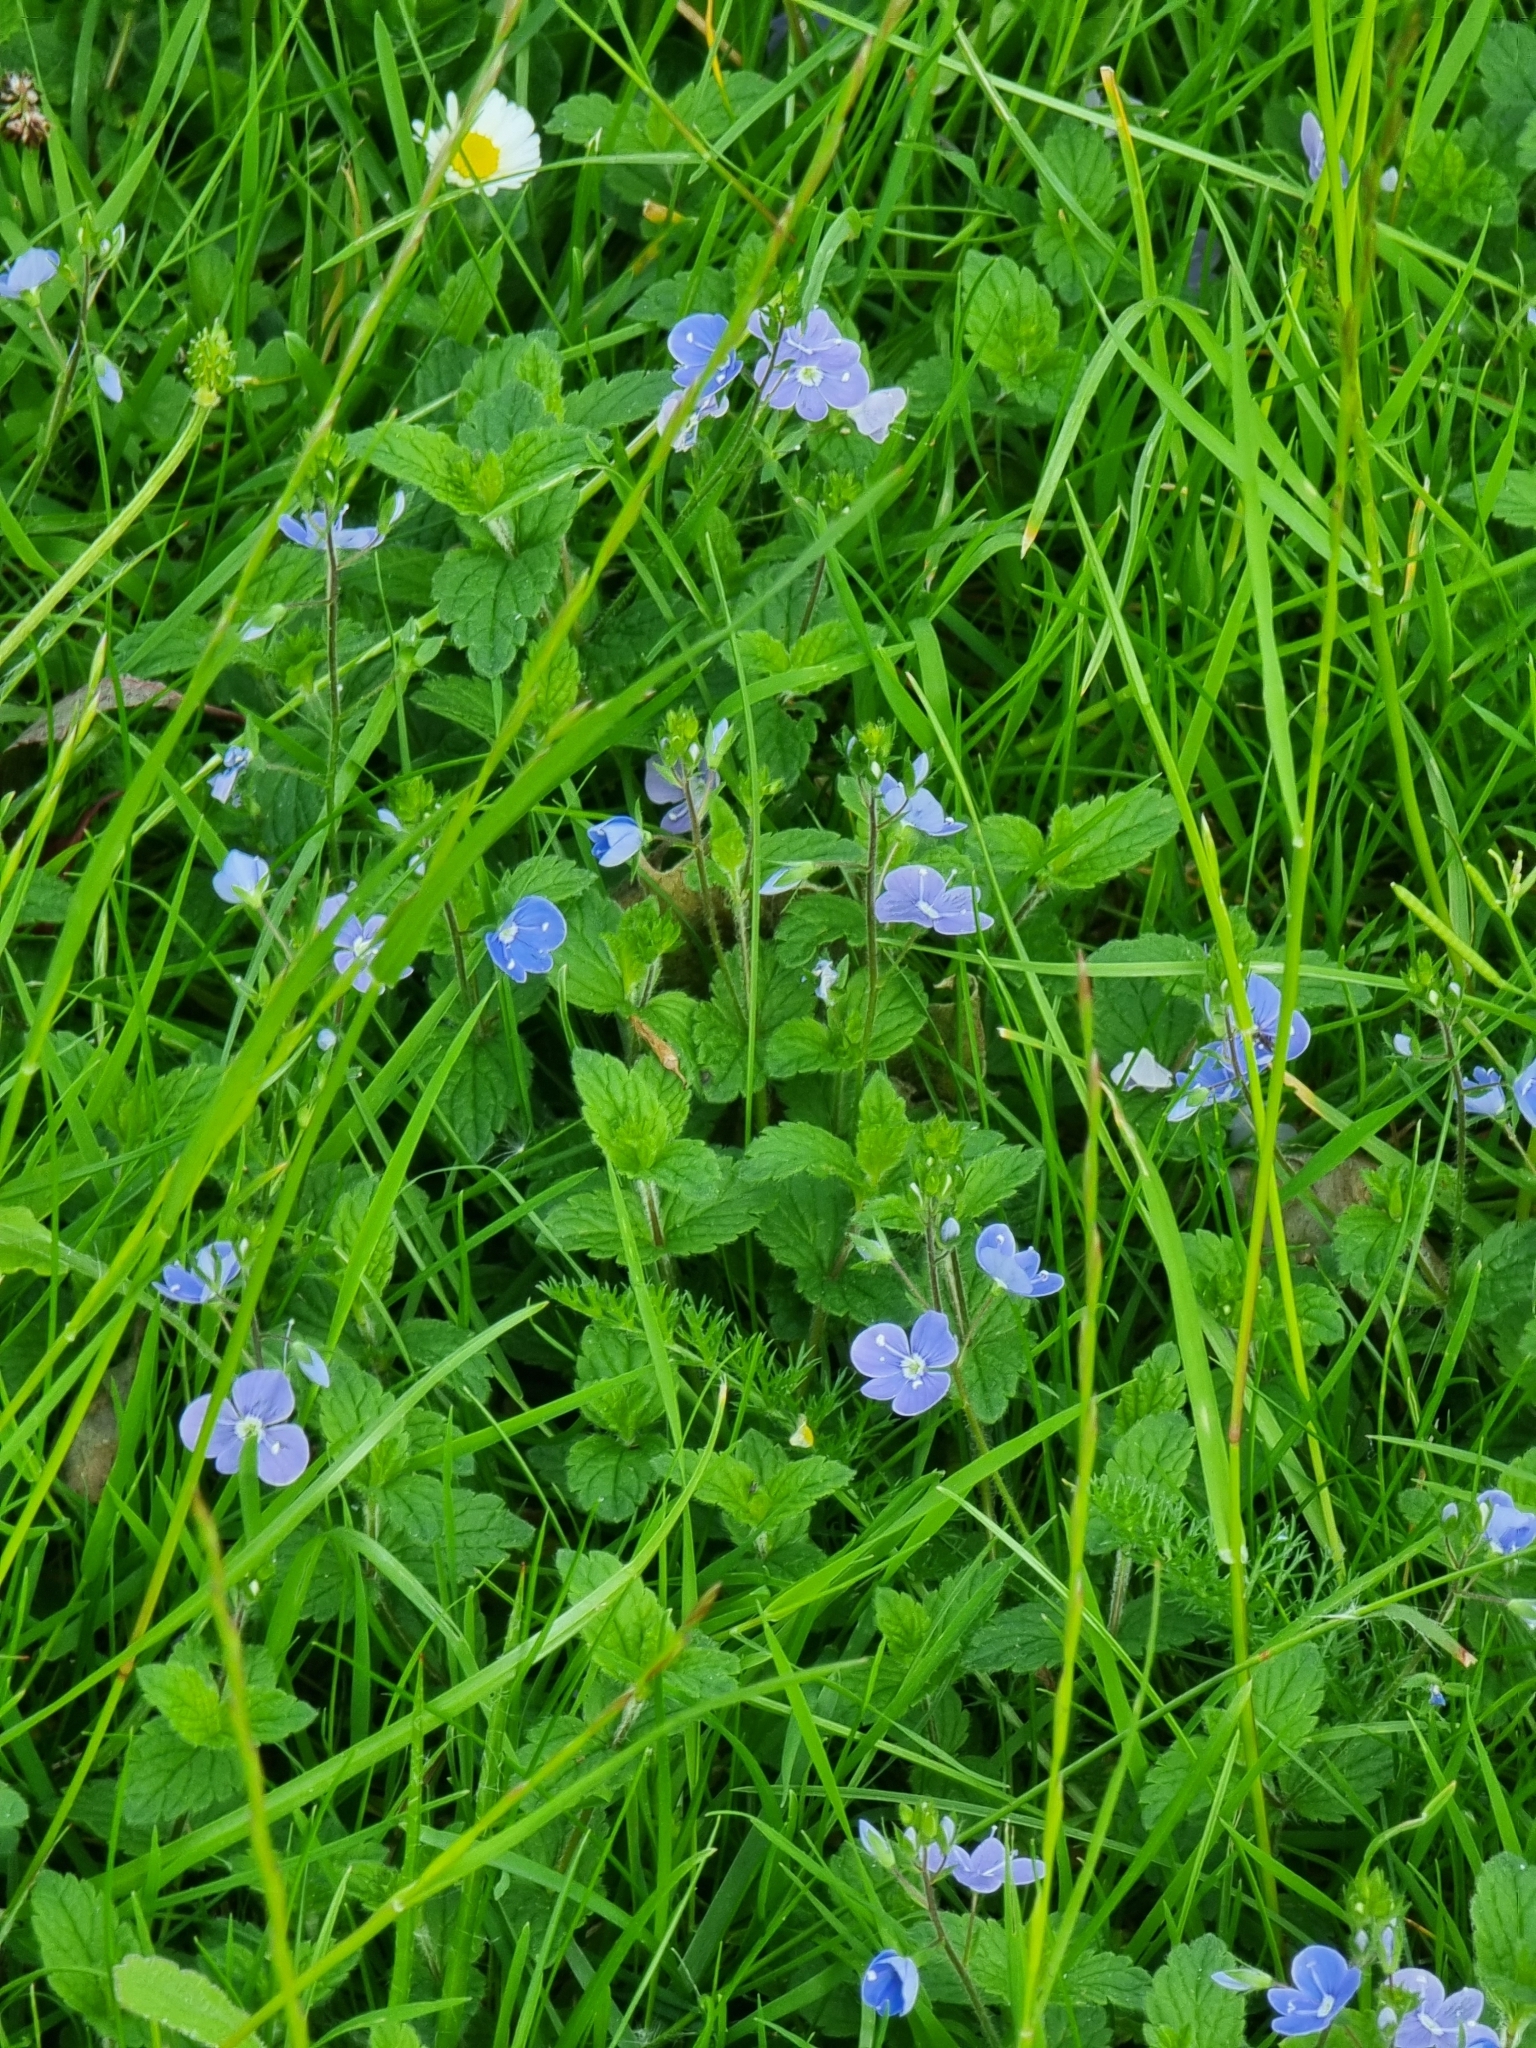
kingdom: Plantae
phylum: Tracheophyta
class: Magnoliopsida
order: Lamiales
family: Plantaginaceae
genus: Veronica
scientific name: Veronica chamaedrys
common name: Germander speedwell
